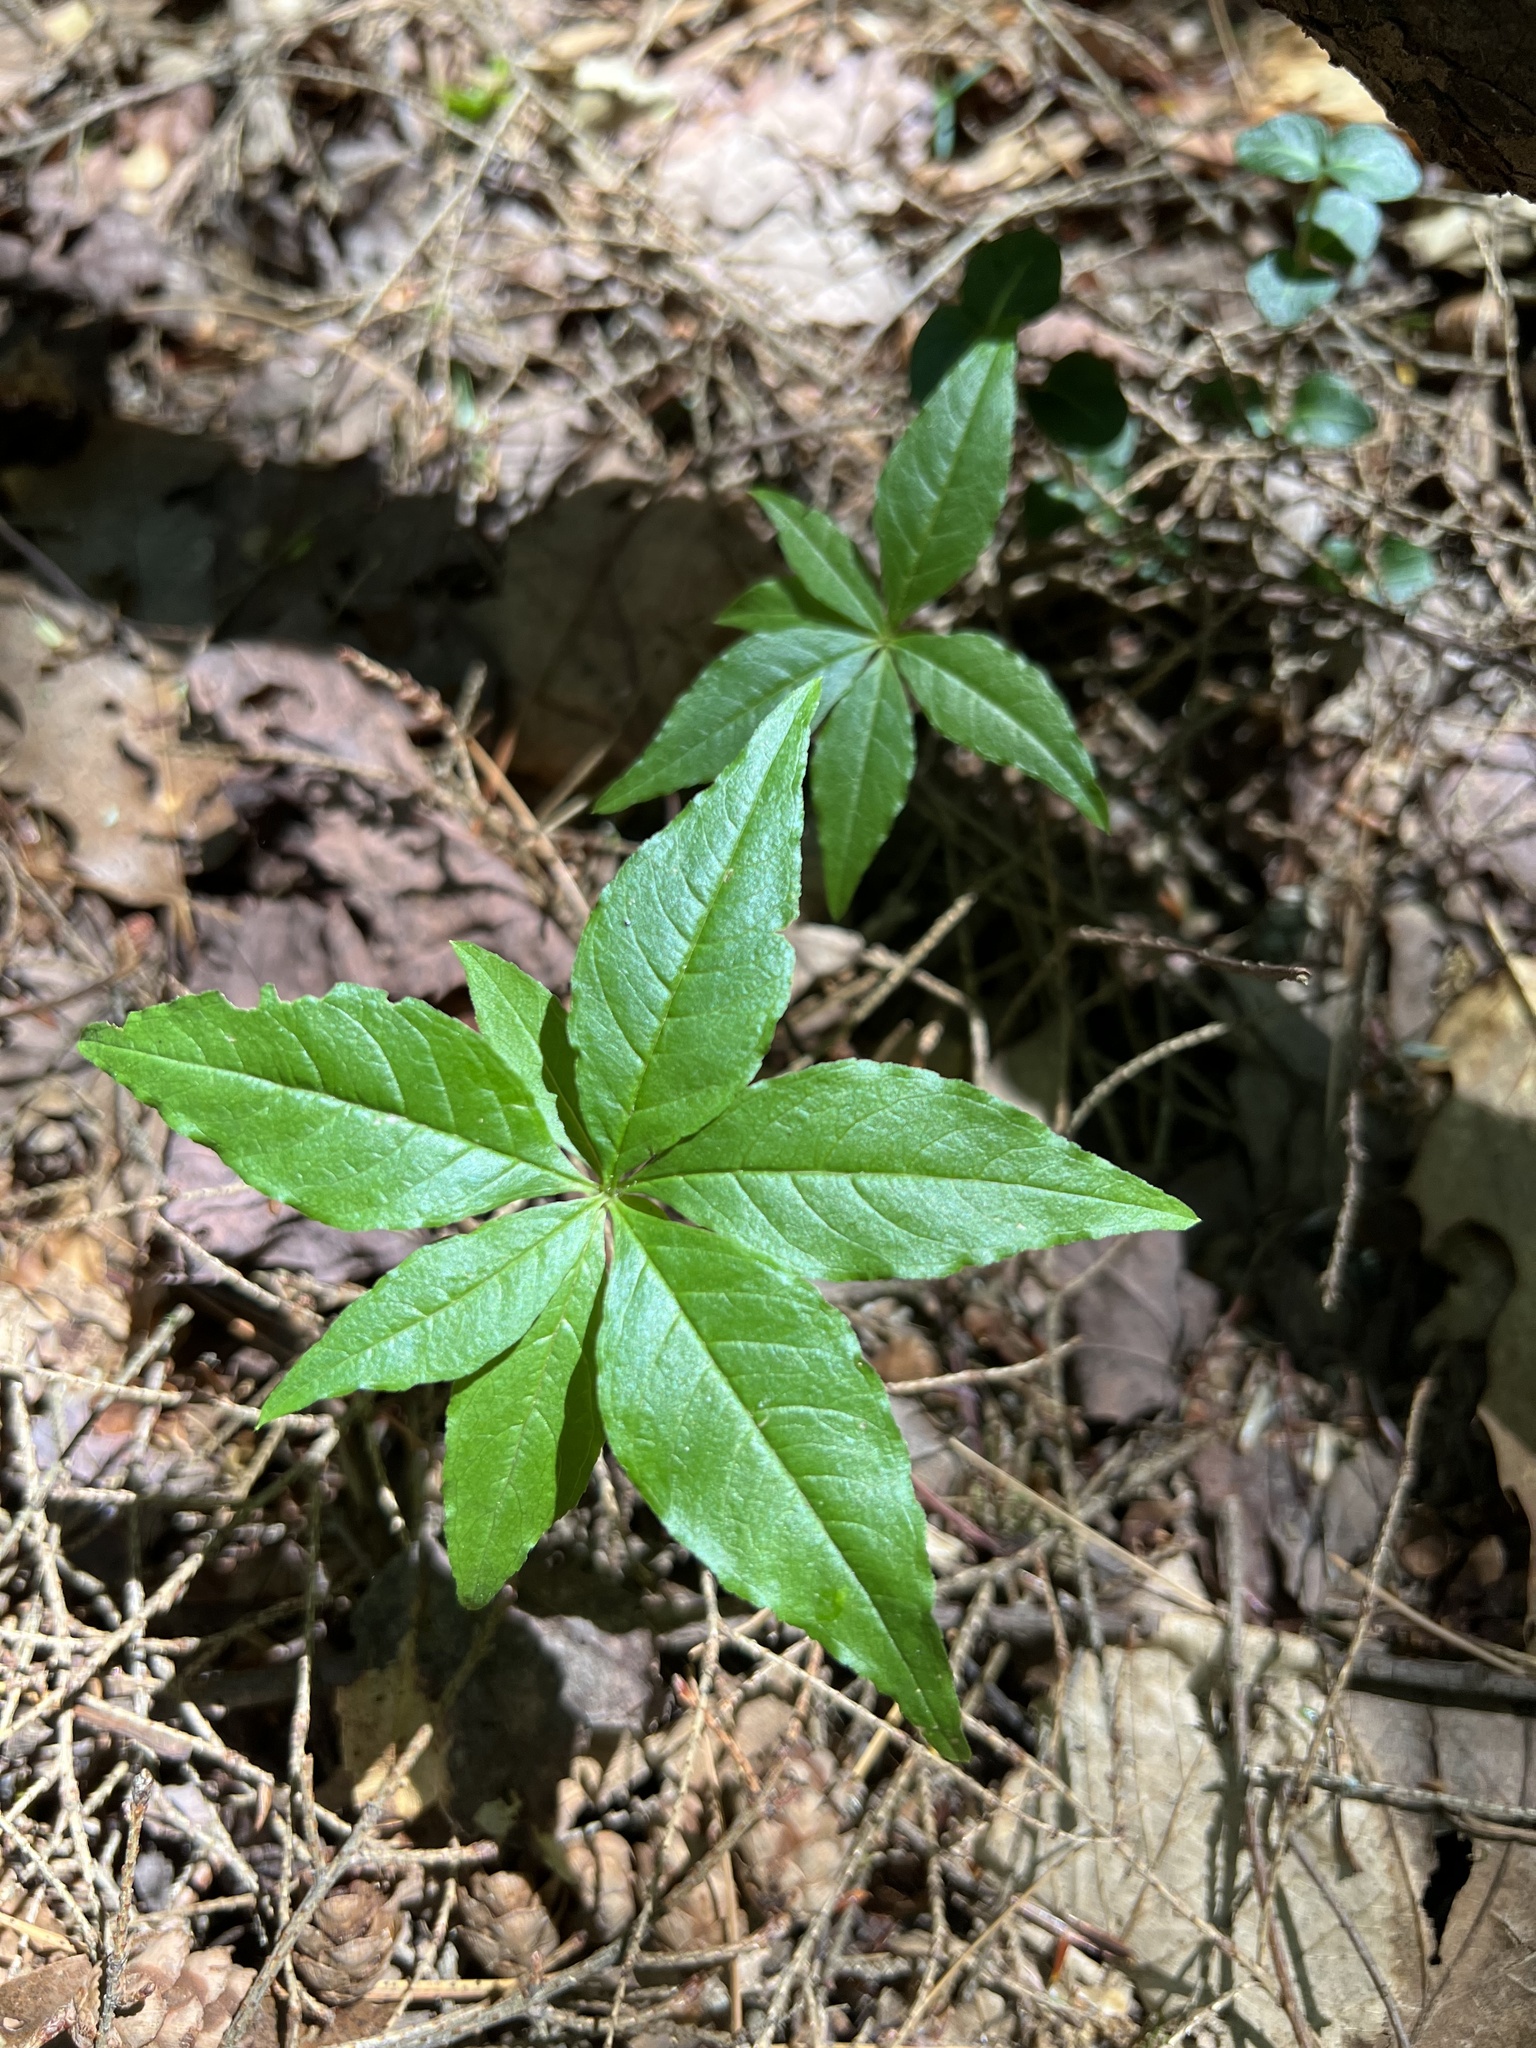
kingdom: Plantae
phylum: Tracheophyta
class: Magnoliopsida
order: Ericales
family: Primulaceae
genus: Lysimachia
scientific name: Lysimachia borealis
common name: American starflower
